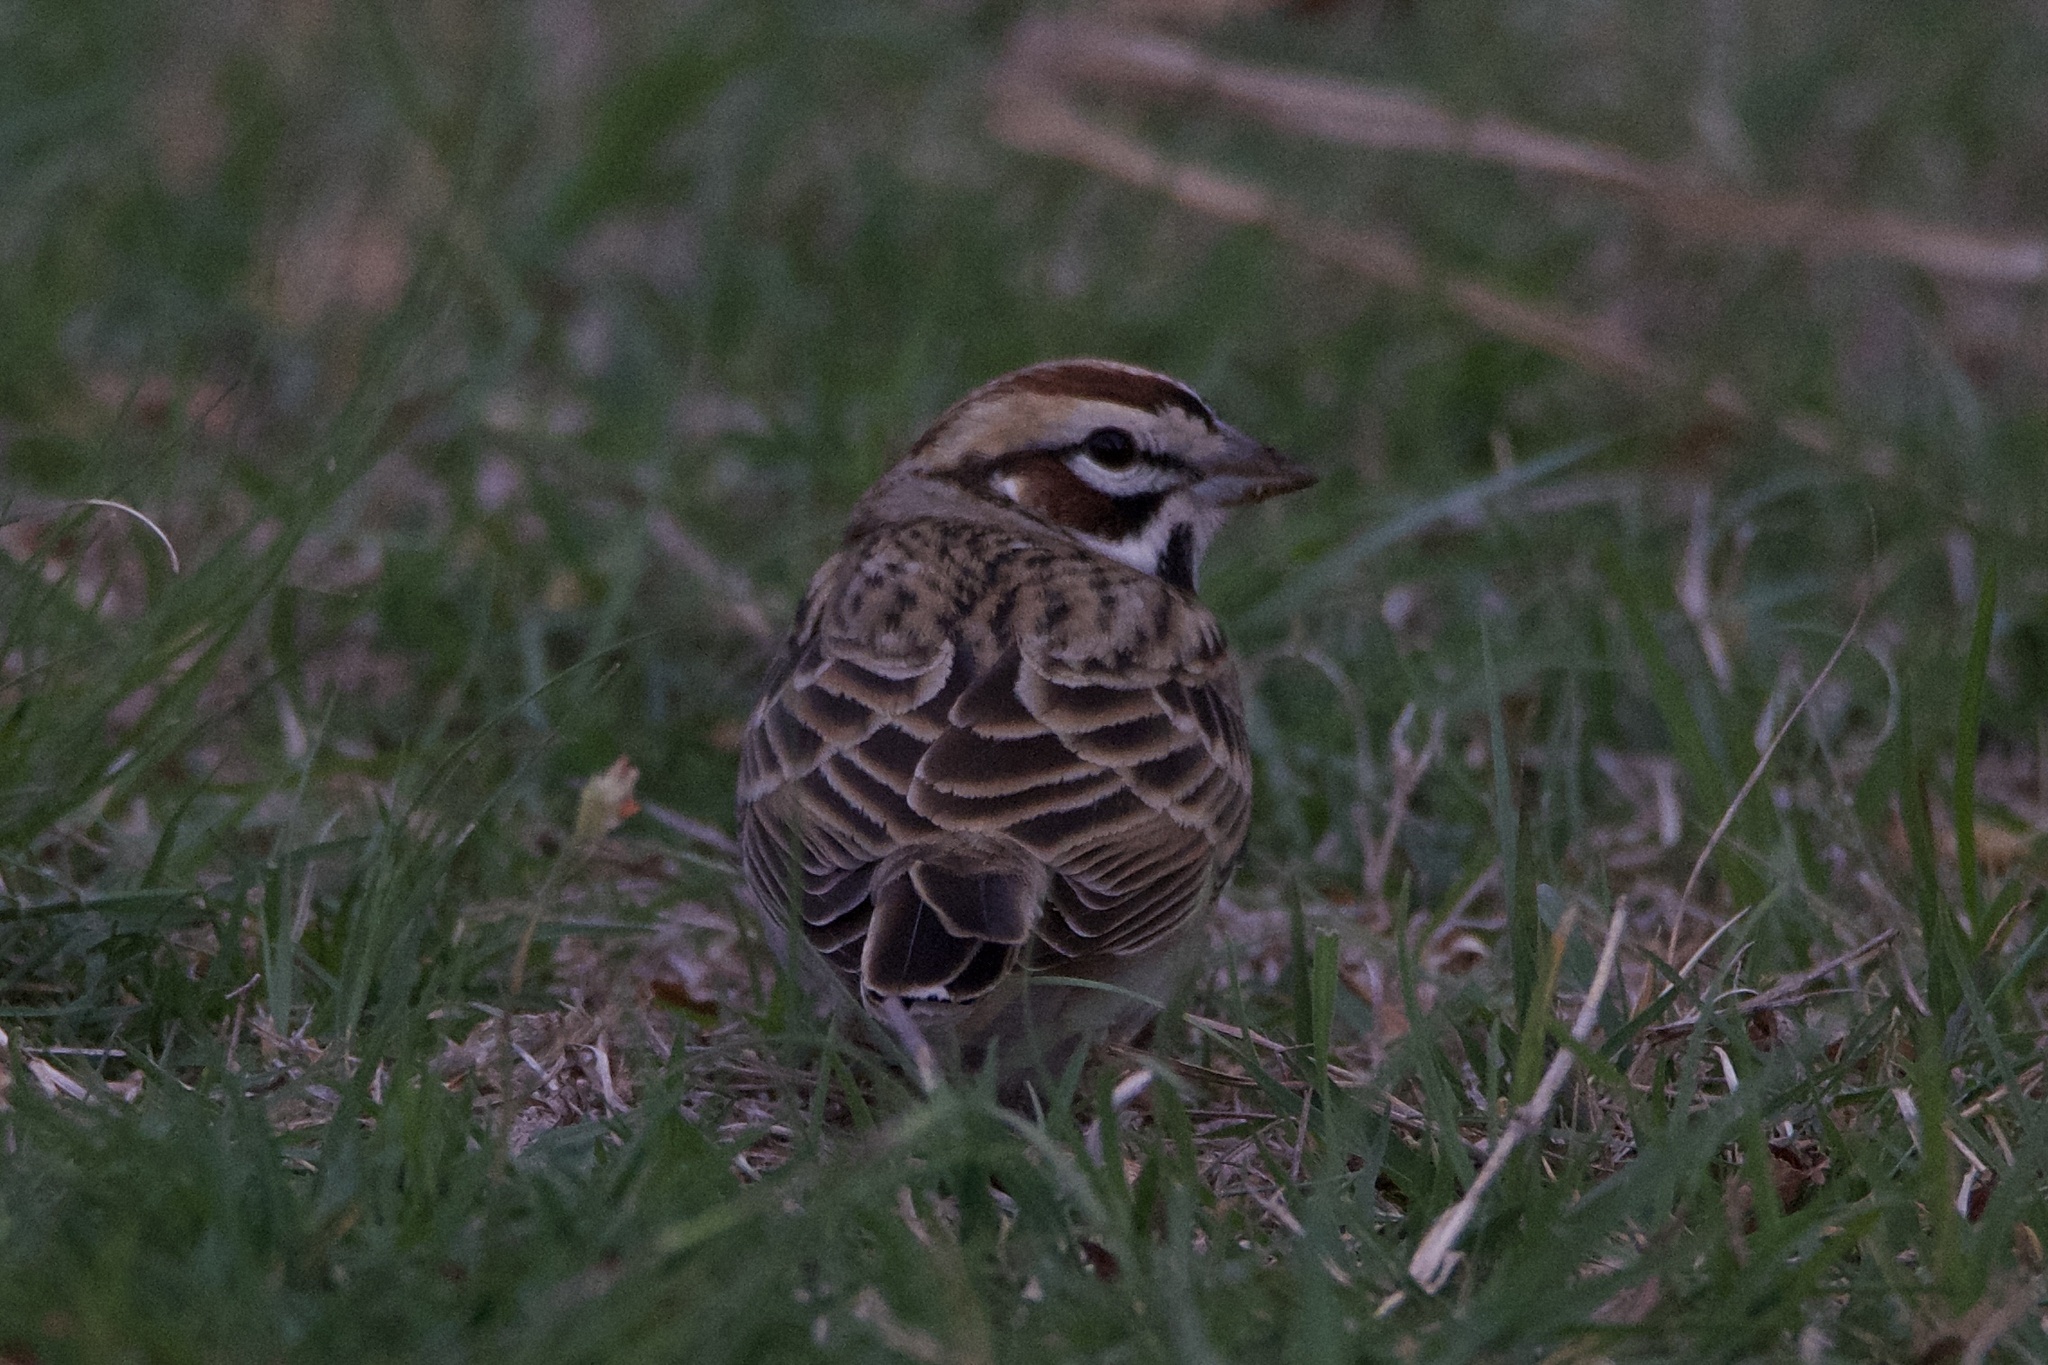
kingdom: Animalia
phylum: Chordata
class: Aves
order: Passeriformes
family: Passerellidae
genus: Chondestes
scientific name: Chondestes grammacus
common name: Lark sparrow
